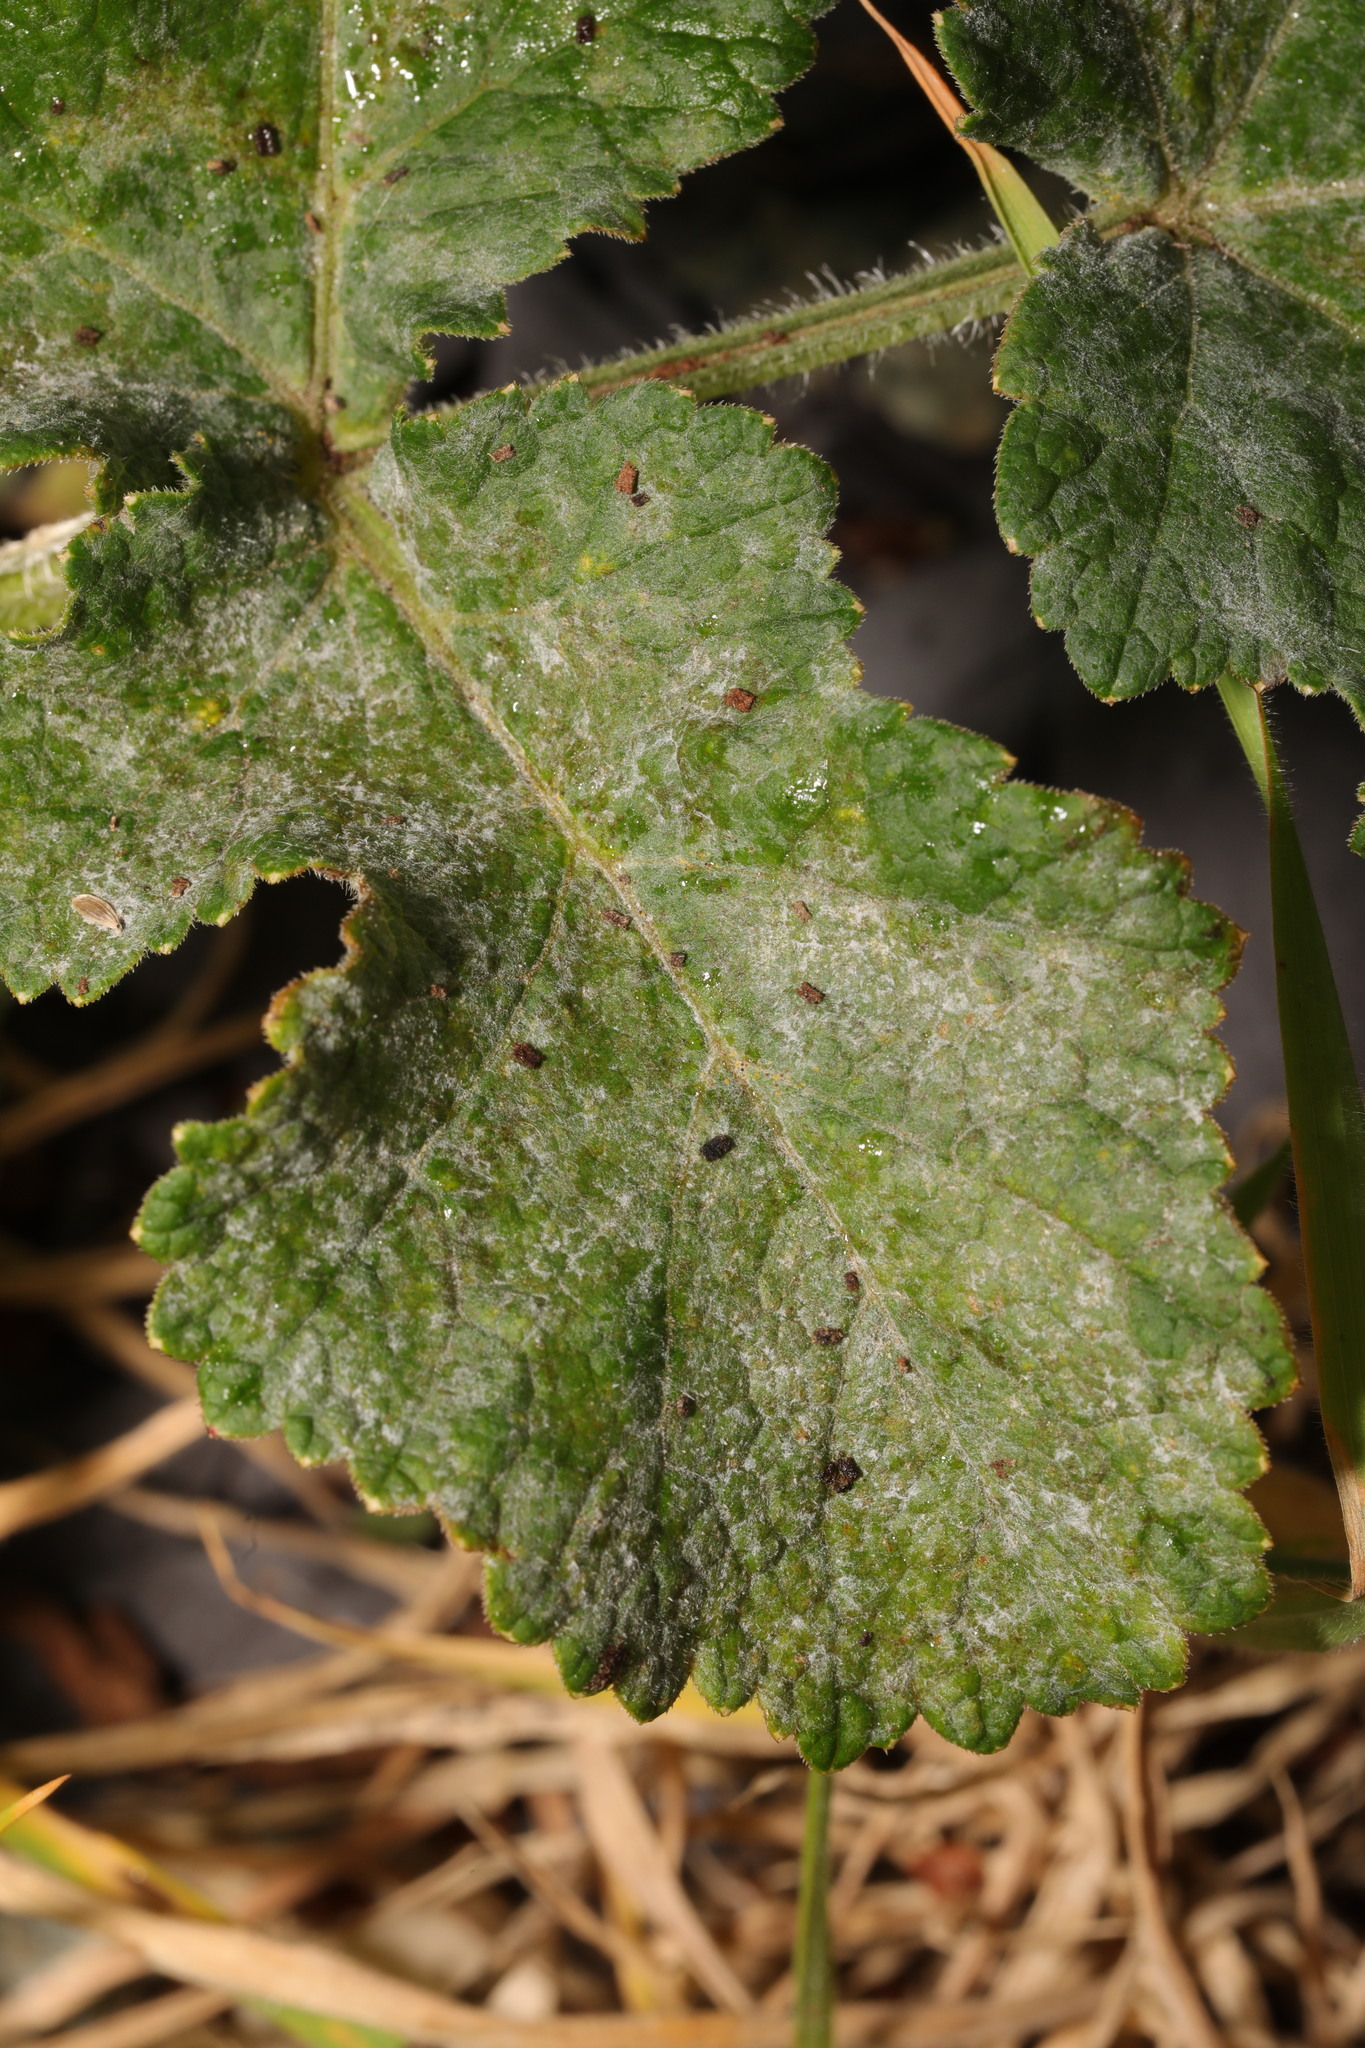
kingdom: Fungi
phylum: Ascomycota
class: Leotiomycetes
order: Helotiales
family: Erysiphaceae
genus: Erysiphe
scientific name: Erysiphe heraclei
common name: Umbellifer mildew
